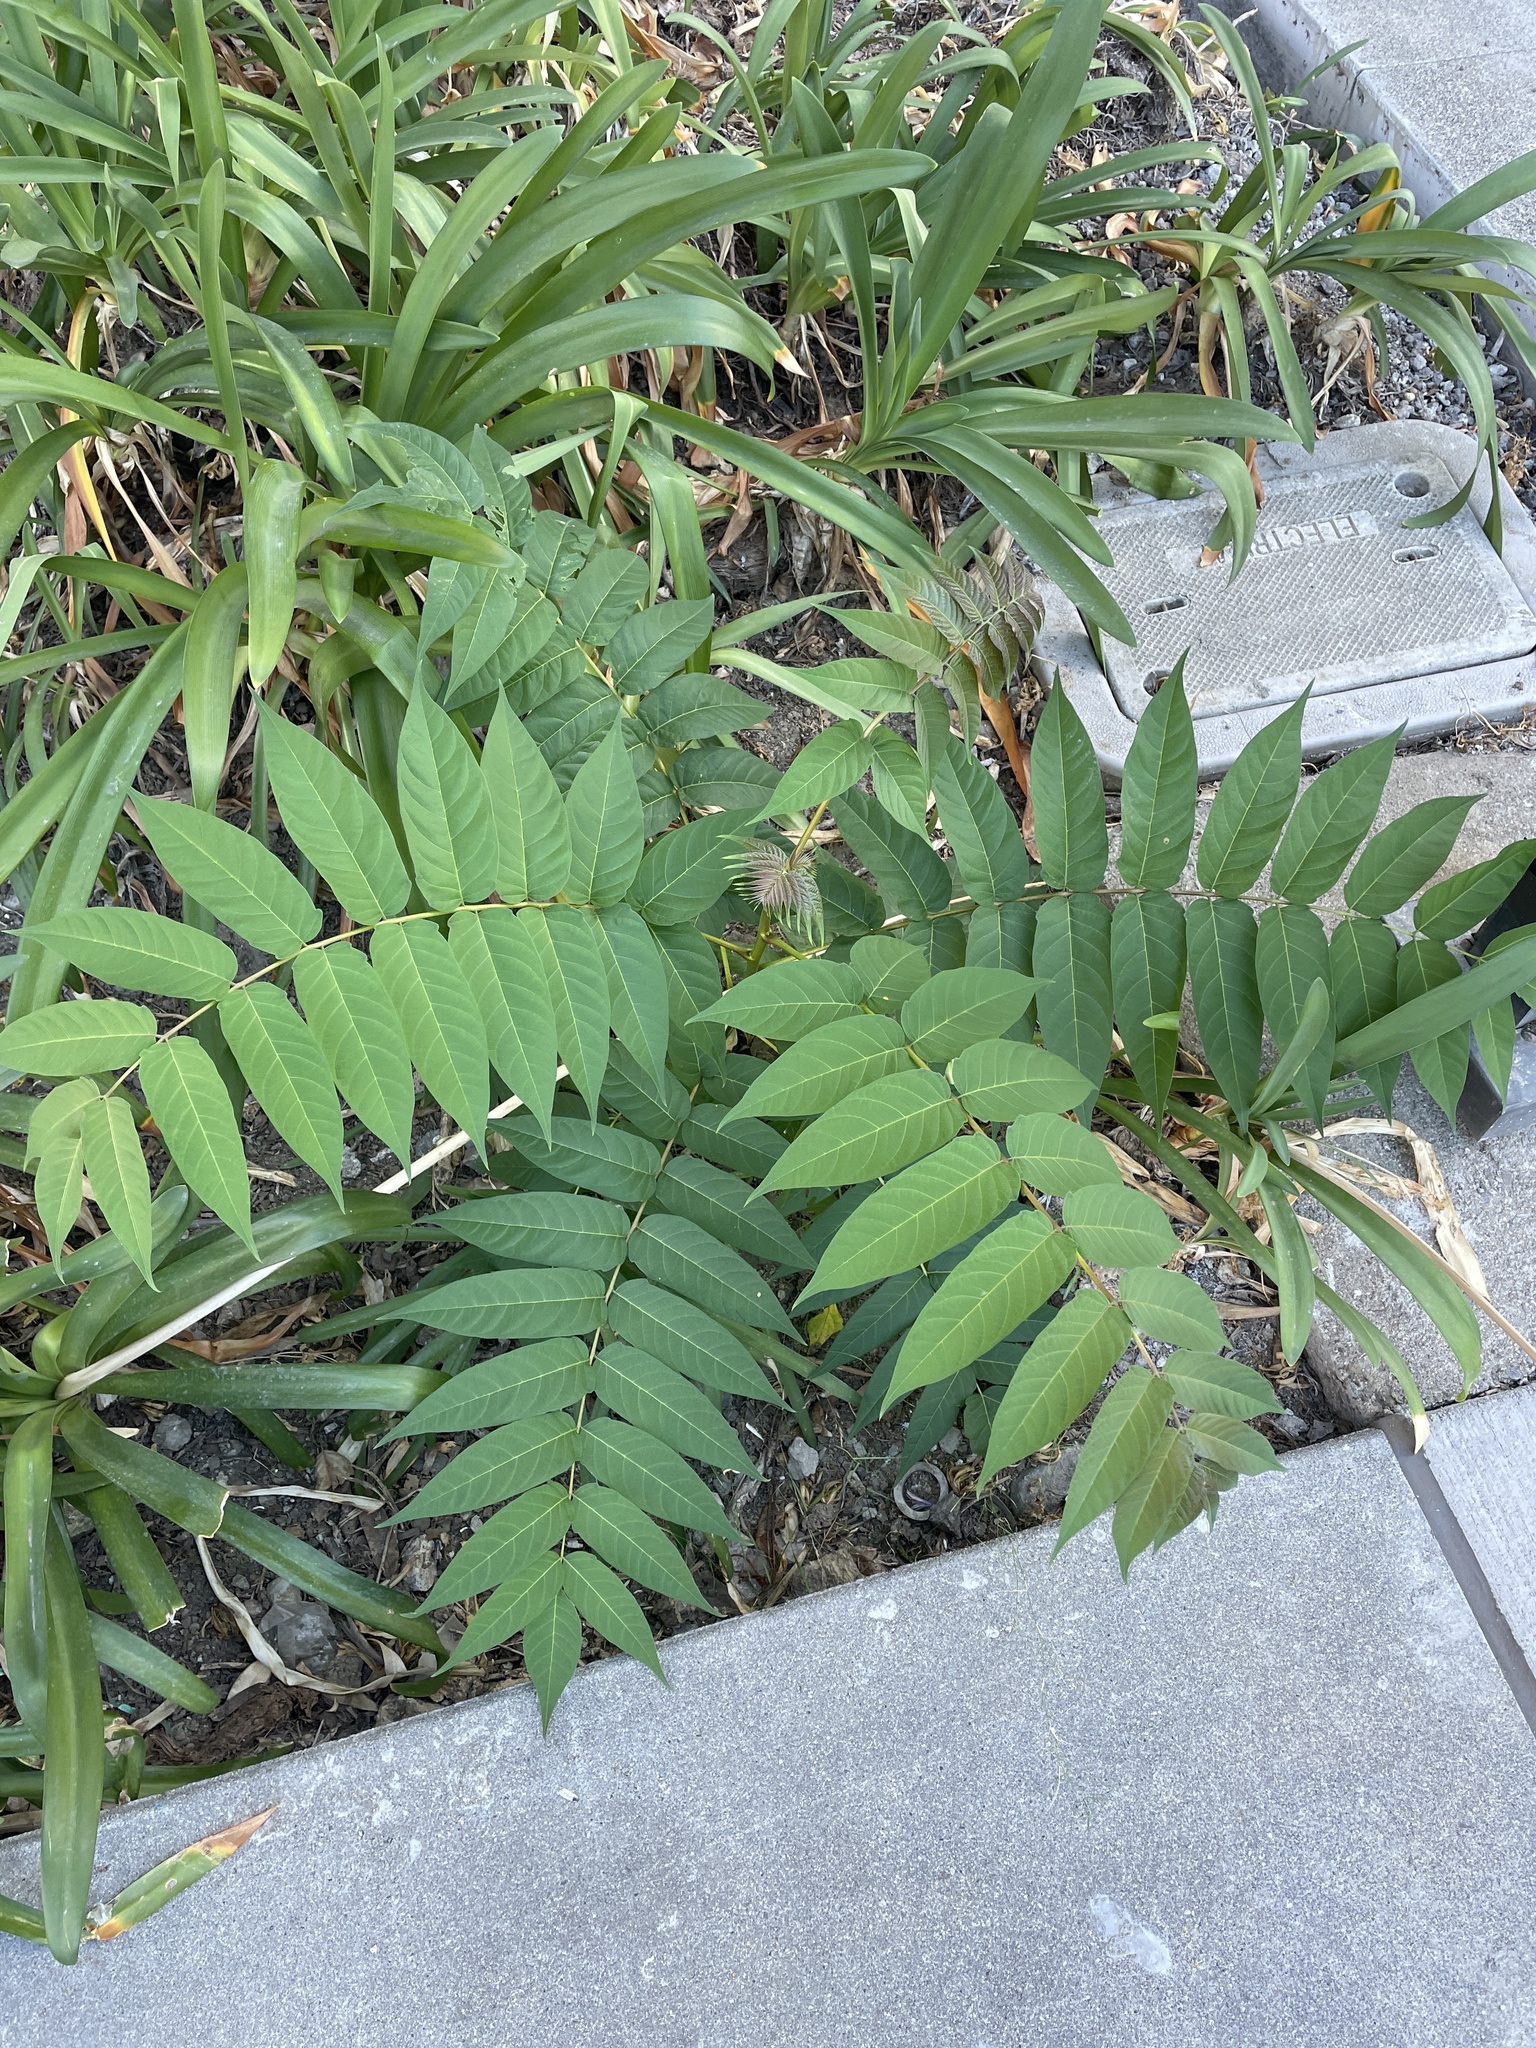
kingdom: Plantae
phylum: Tracheophyta
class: Magnoliopsida
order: Sapindales
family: Simaroubaceae
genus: Ailanthus
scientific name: Ailanthus altissima
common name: Tree-of-heaven
